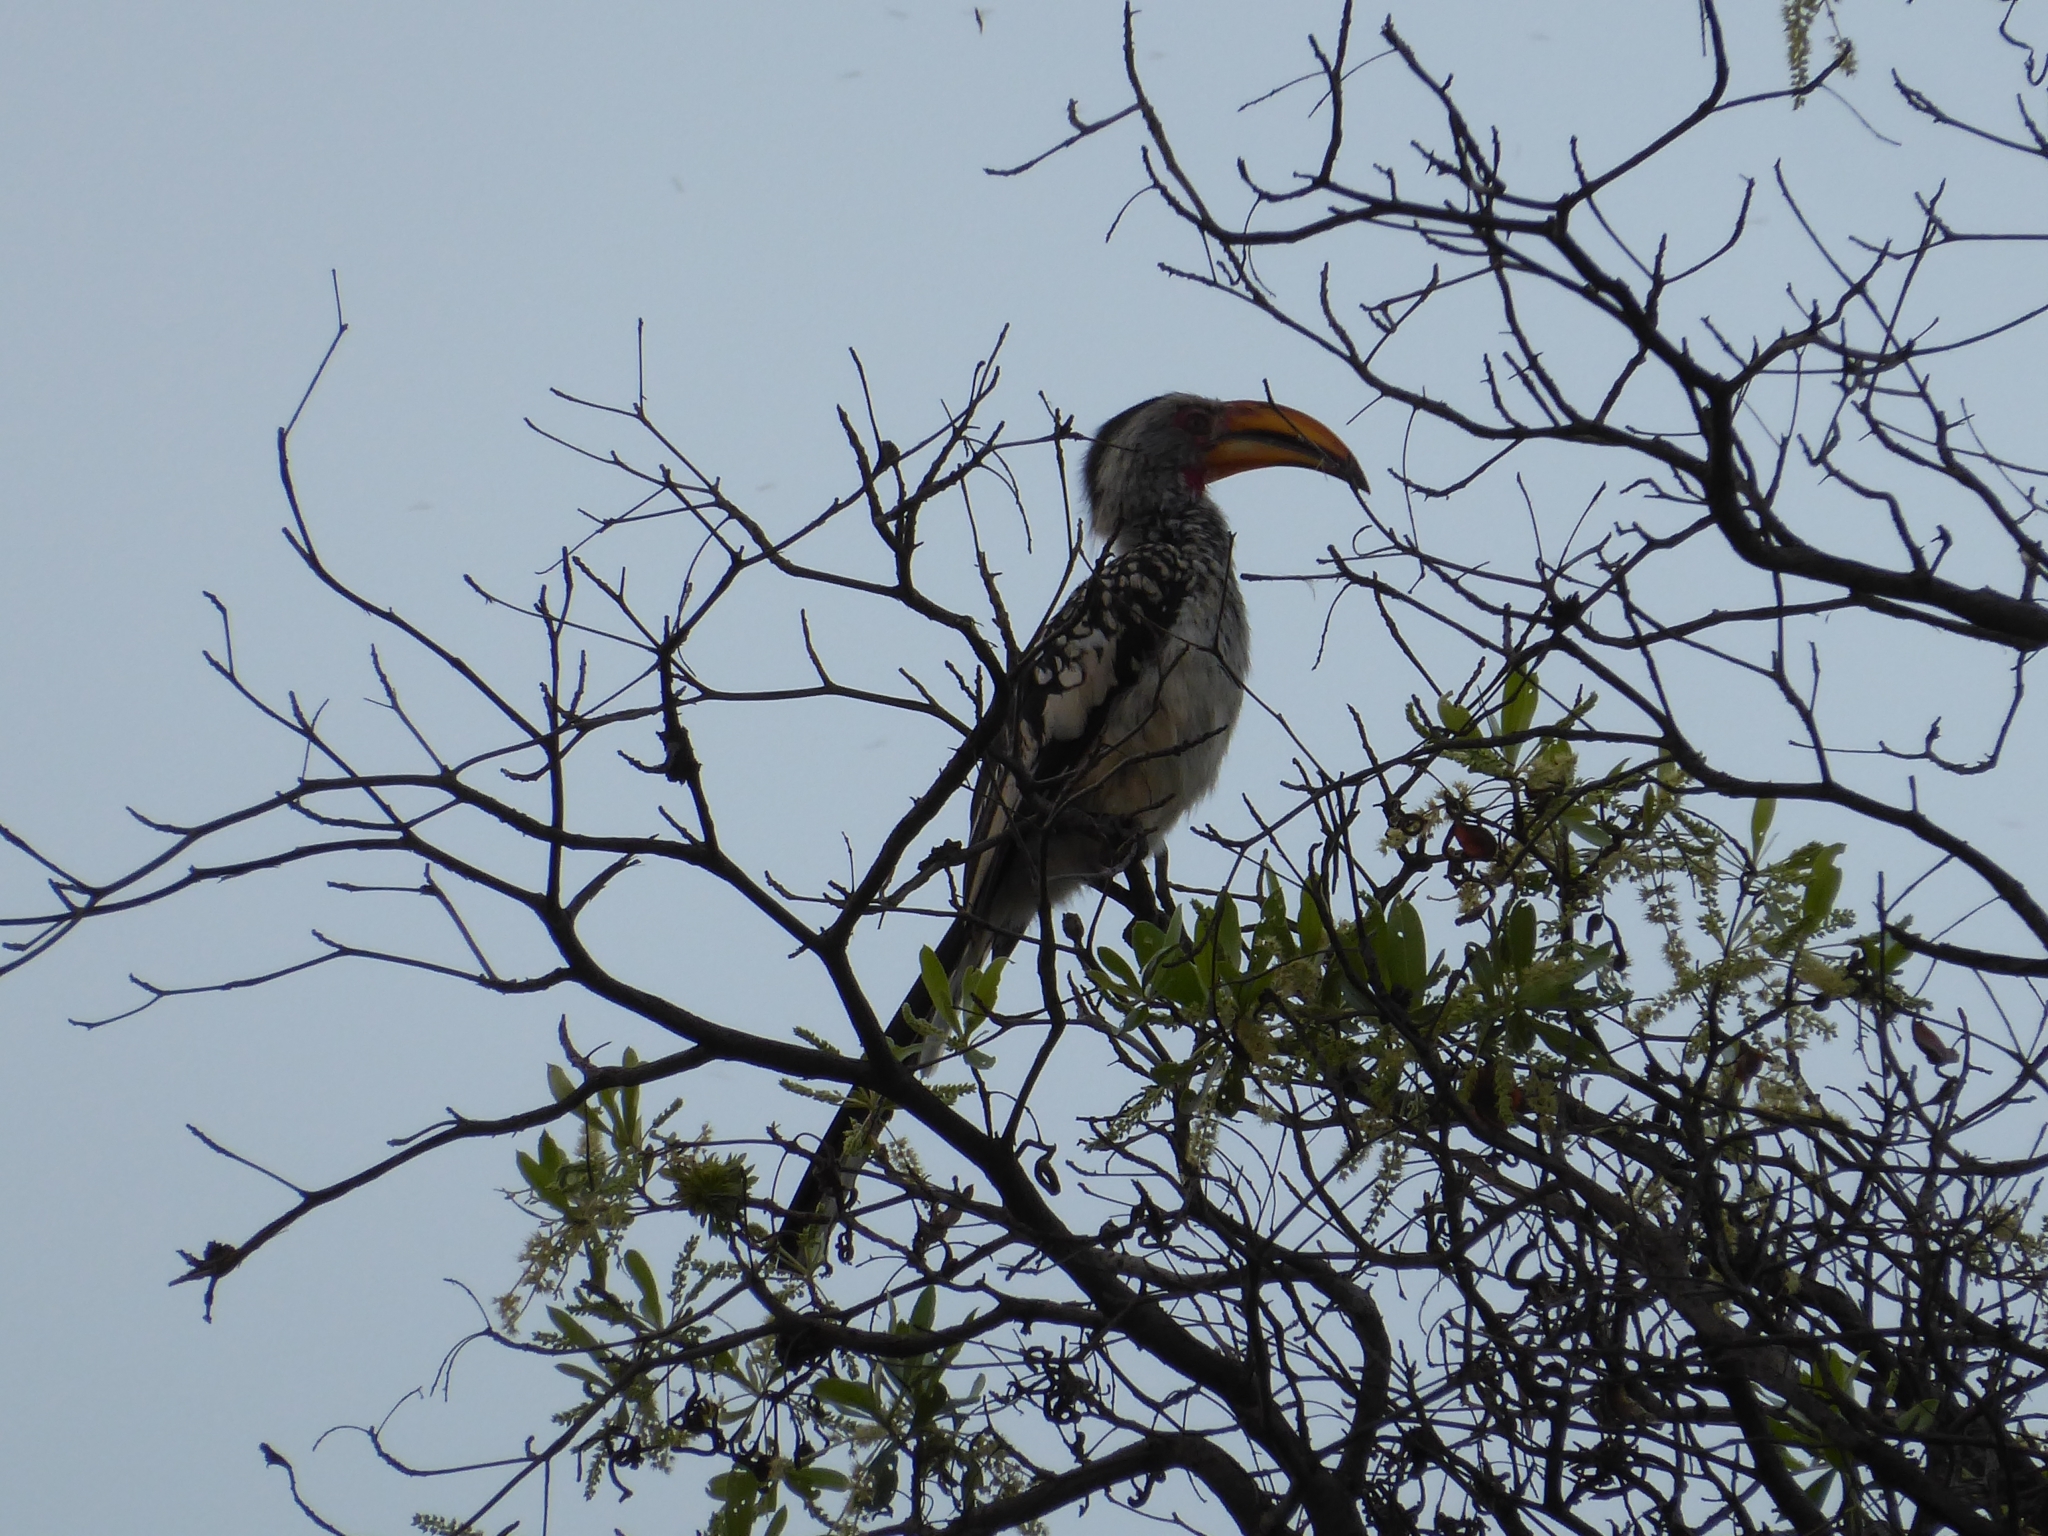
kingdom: Animalia
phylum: Chordata
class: Aves
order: Bucerotiformes
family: Bucerotidae
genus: Tockus
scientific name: Tockus leucomelas
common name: Southern yellow-billed hornbill
